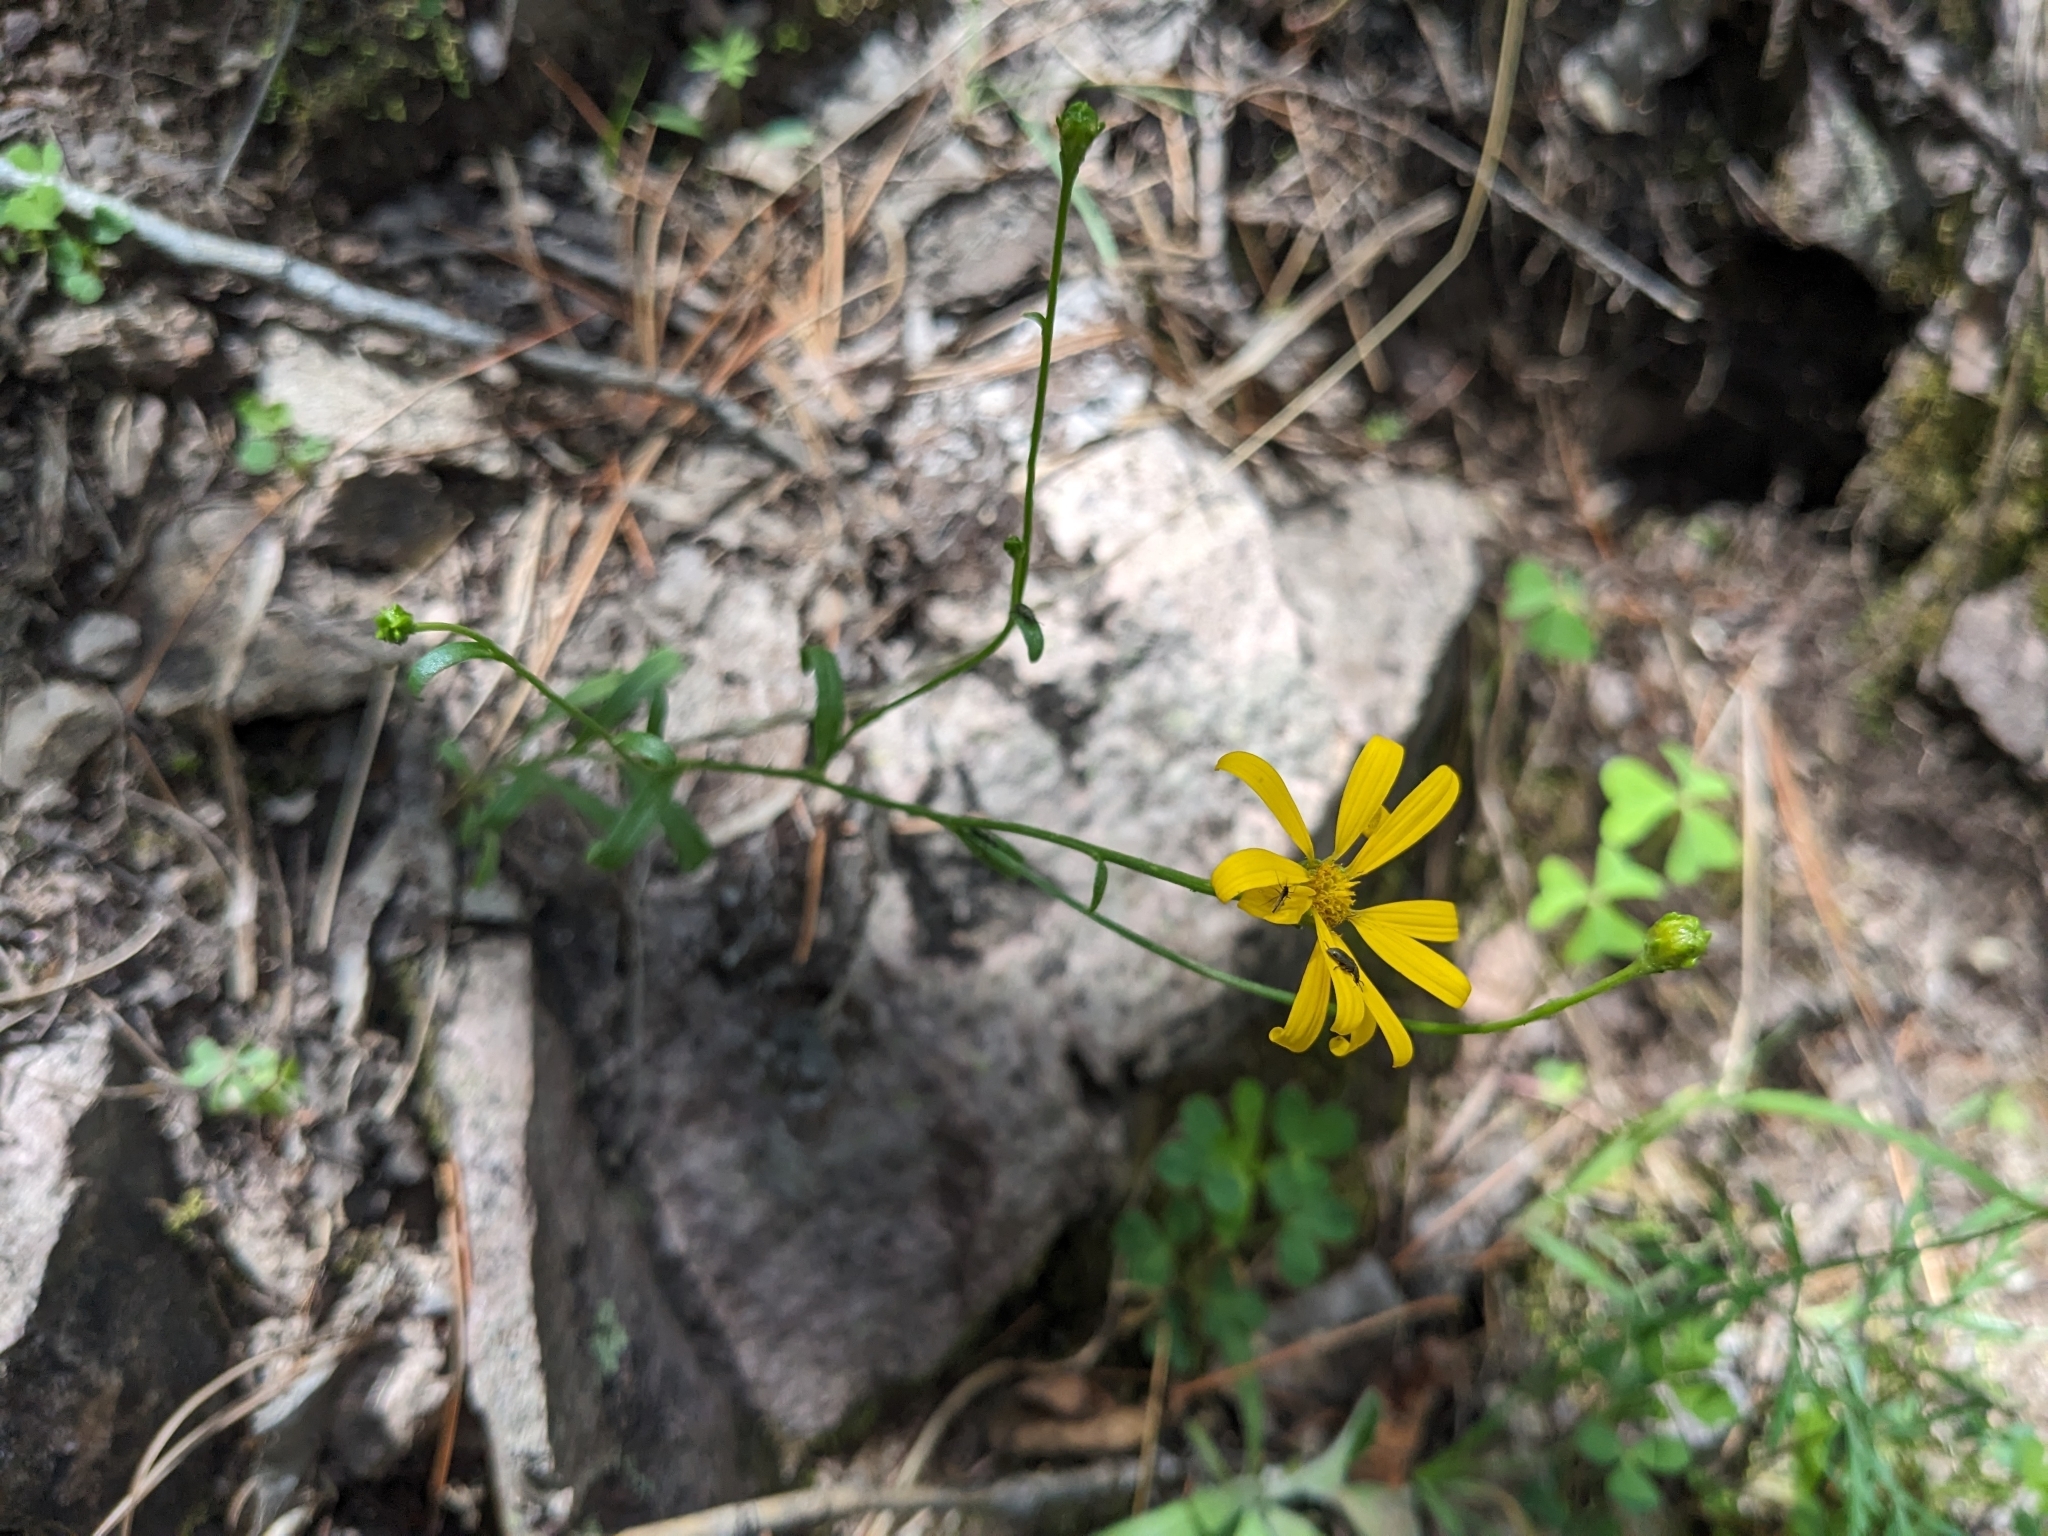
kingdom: Plantae
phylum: Tracheophyta
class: Magnoliopsida
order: Asterales
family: Asteraceae
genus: Gutierrezia
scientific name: Gutierrezia wrightii
